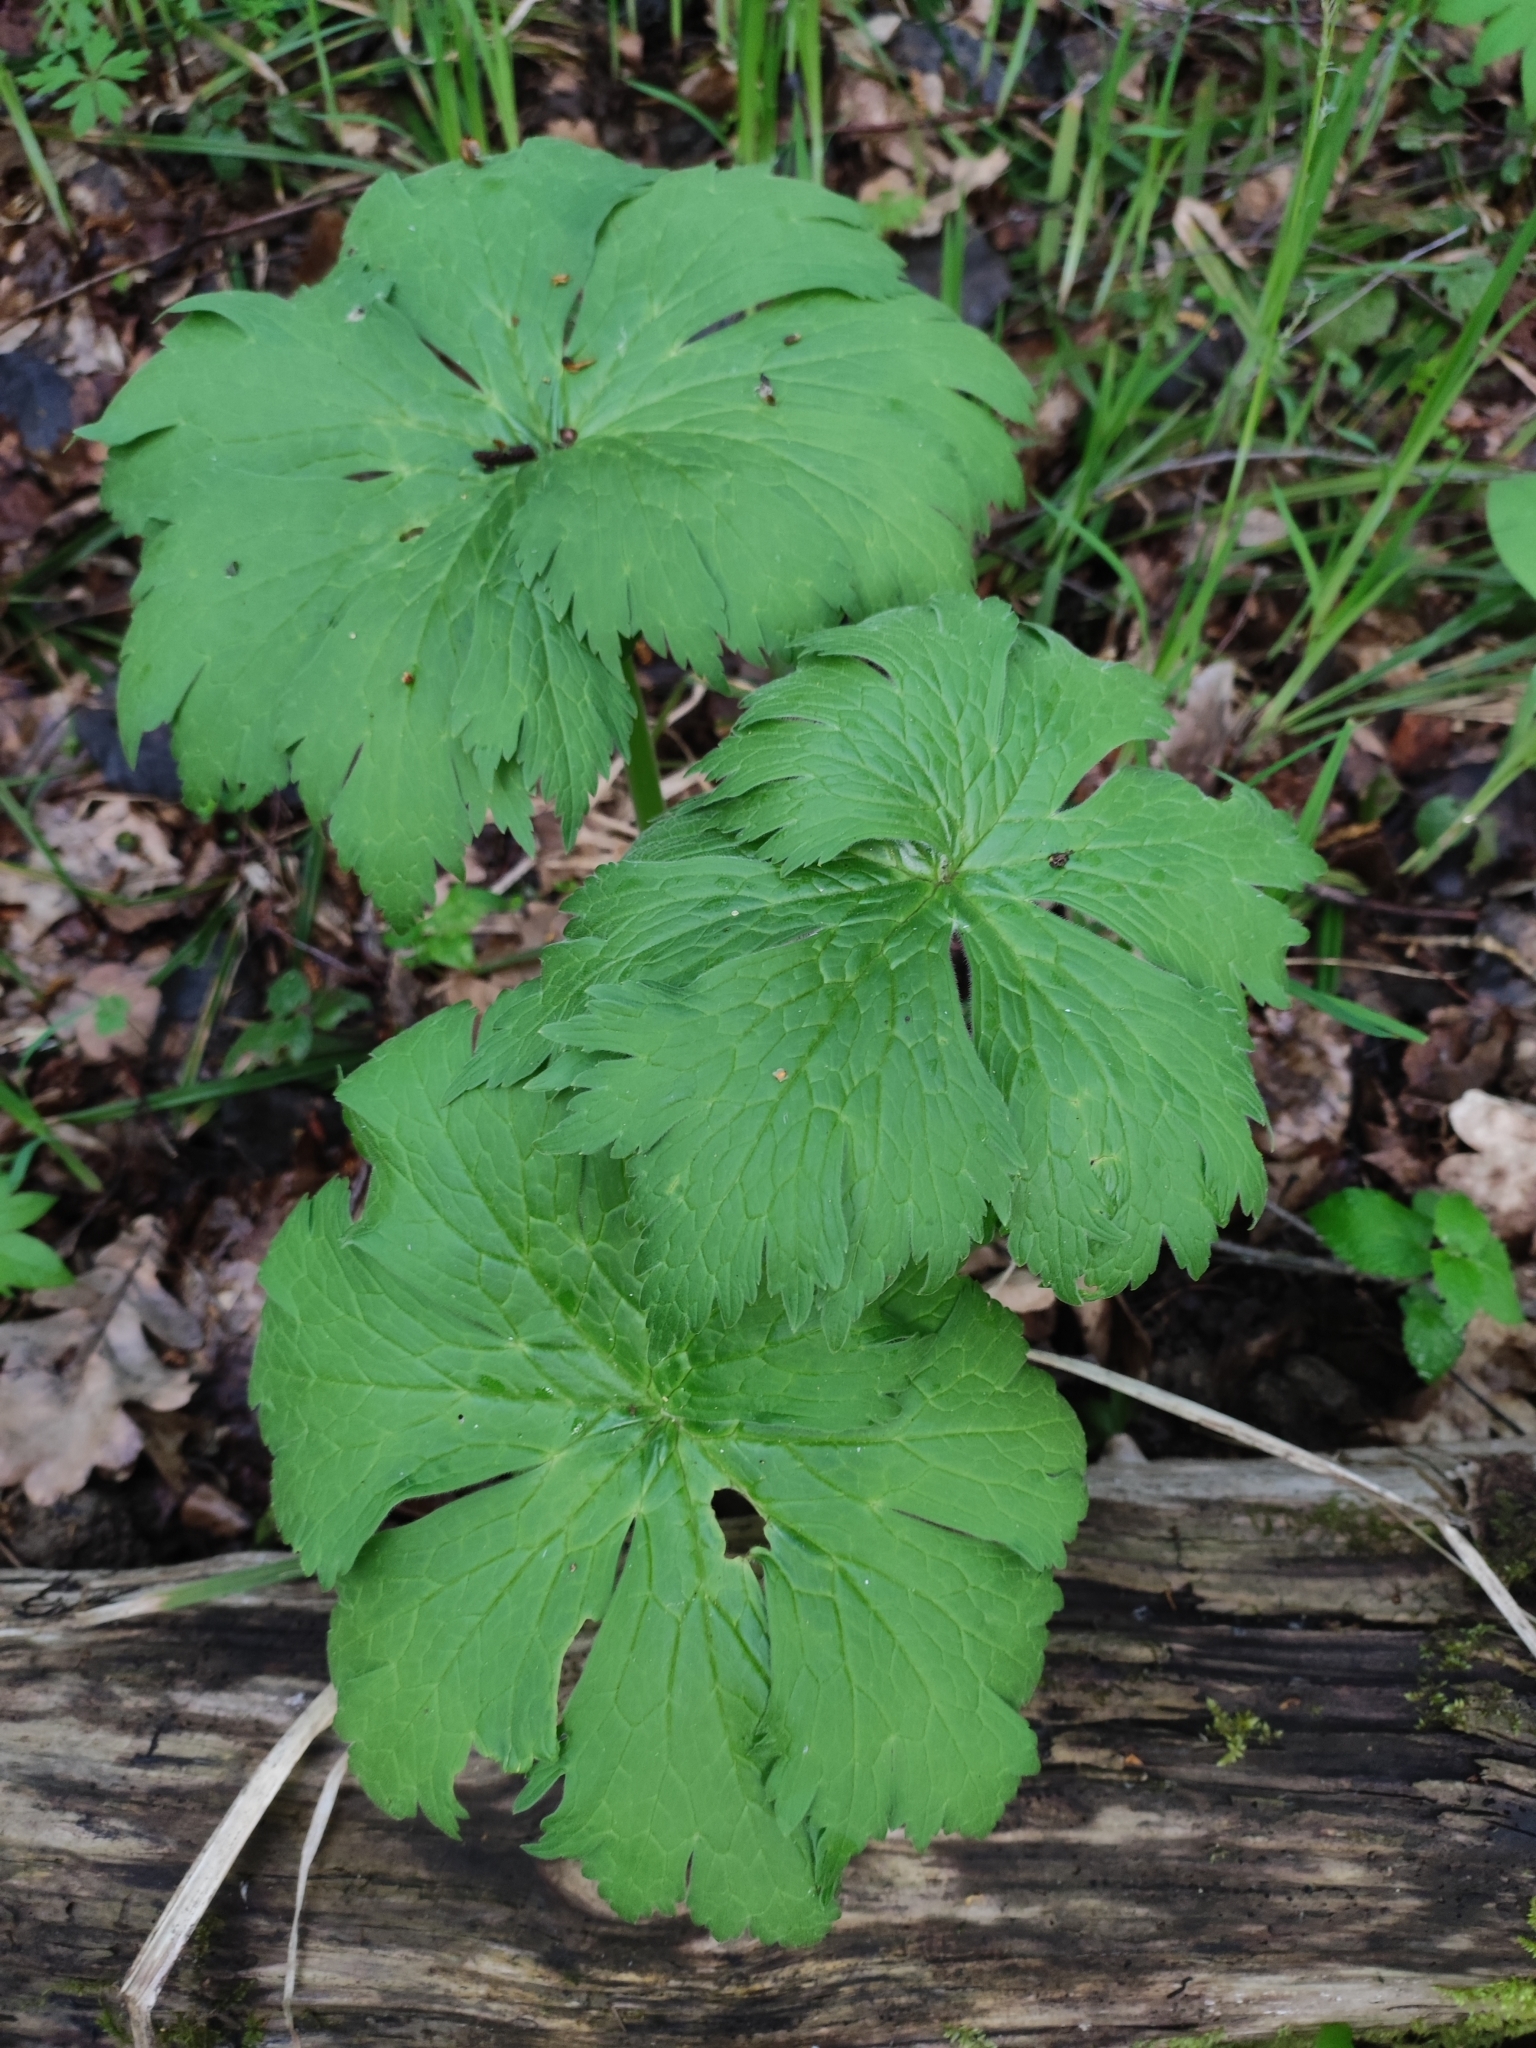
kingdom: Plantae
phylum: Tracheophyta
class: Magnoliopsida
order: Ranunculales
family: Ranunculaceae
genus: Aconitum
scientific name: Aconitum septentrionale
